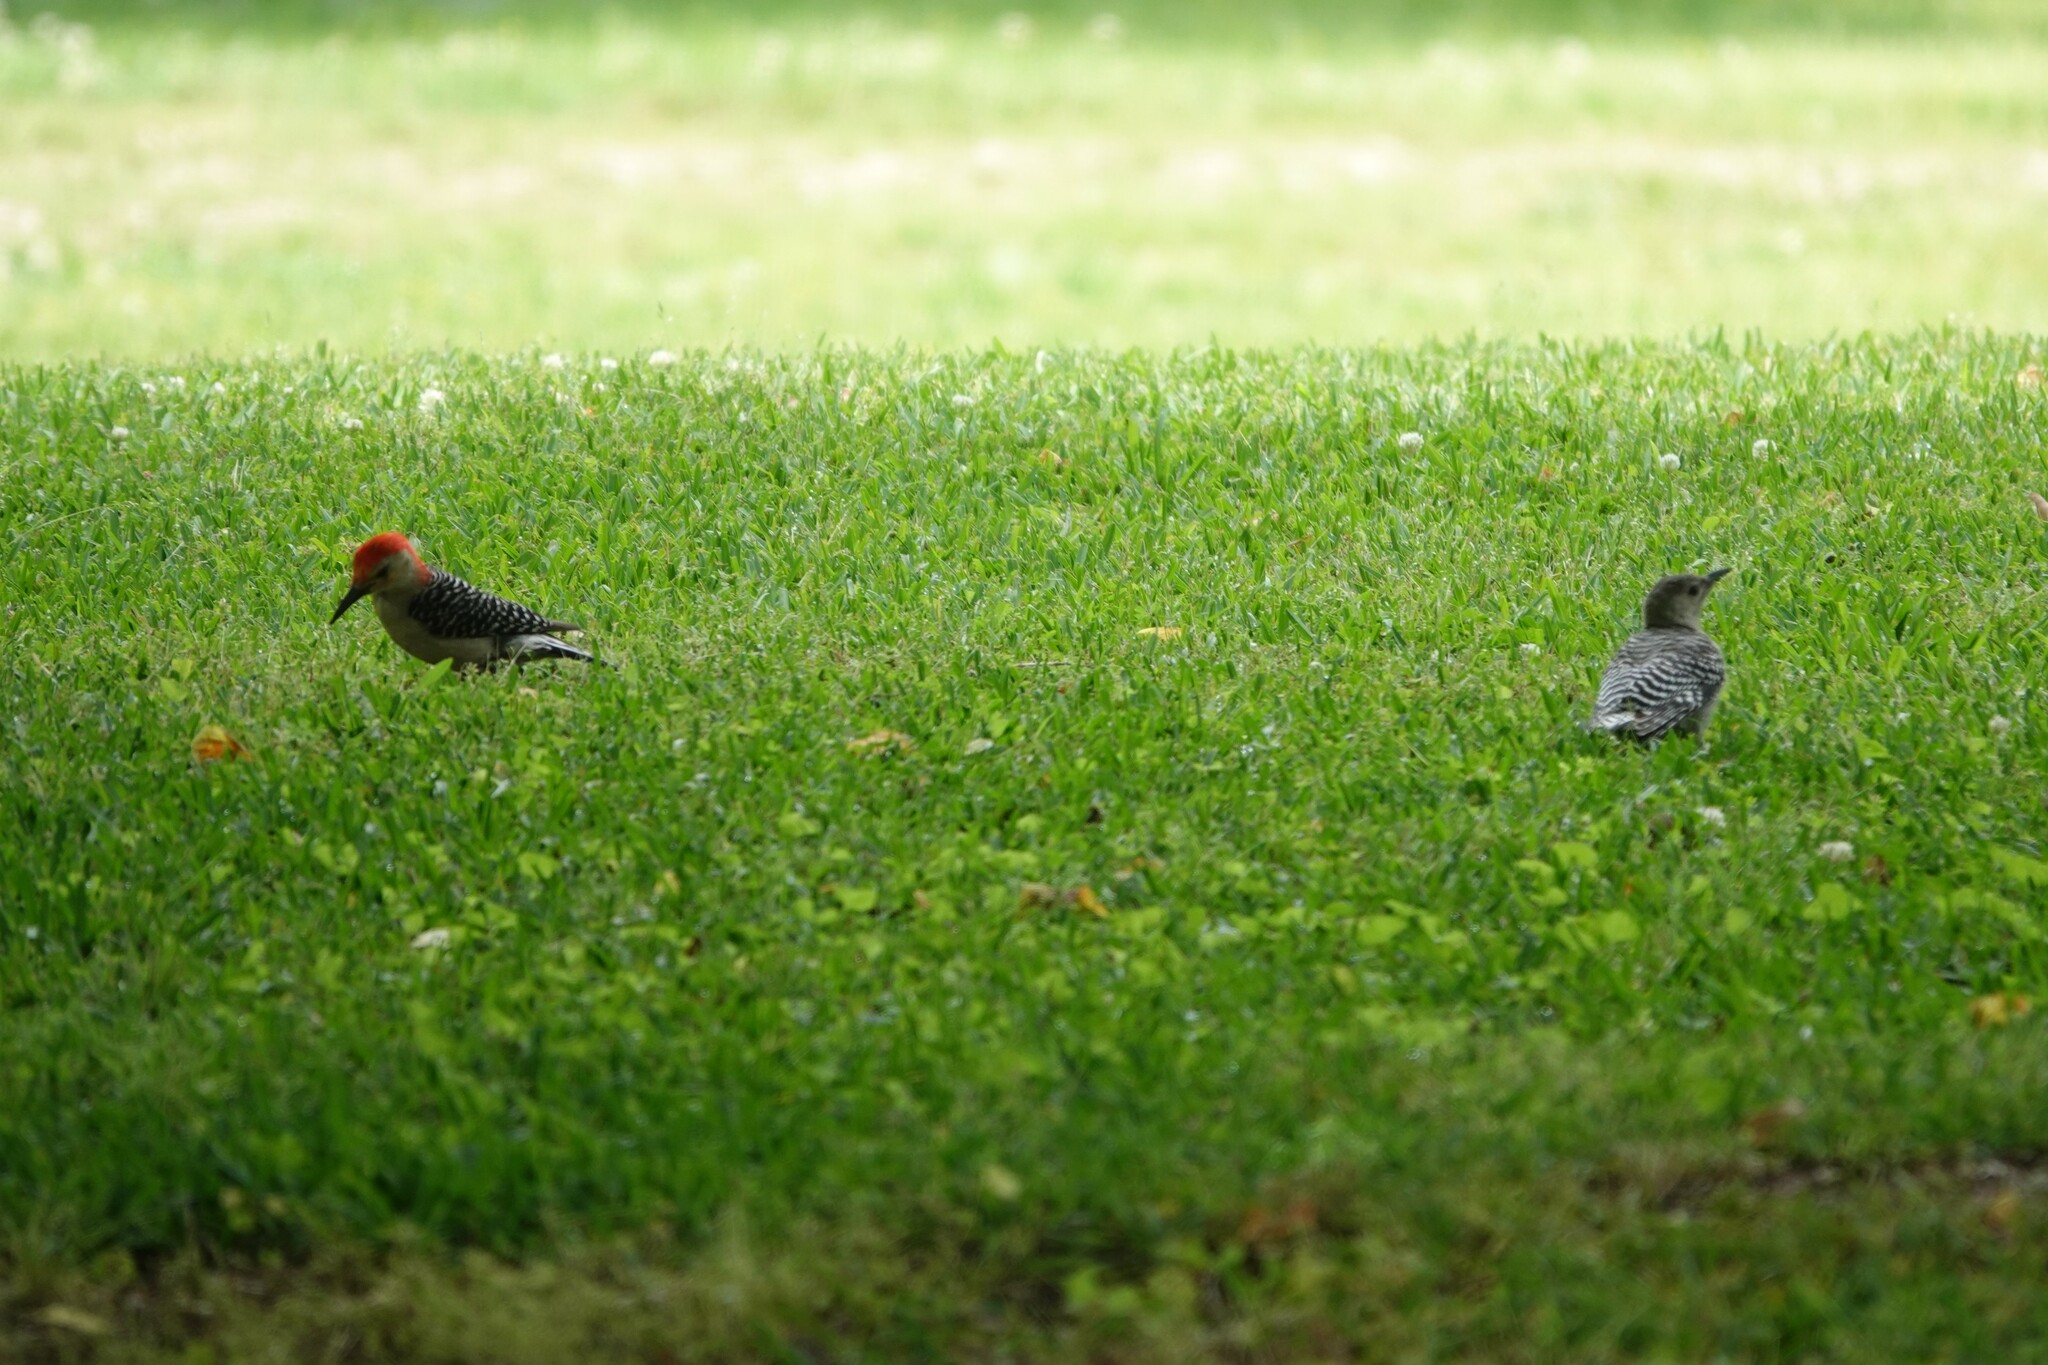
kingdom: Animalia
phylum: Chordata
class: Aves
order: Piciformes
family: Picidae
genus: Melanerpes
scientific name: Melanerpes carolinus
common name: Red-bellied woodpecker
